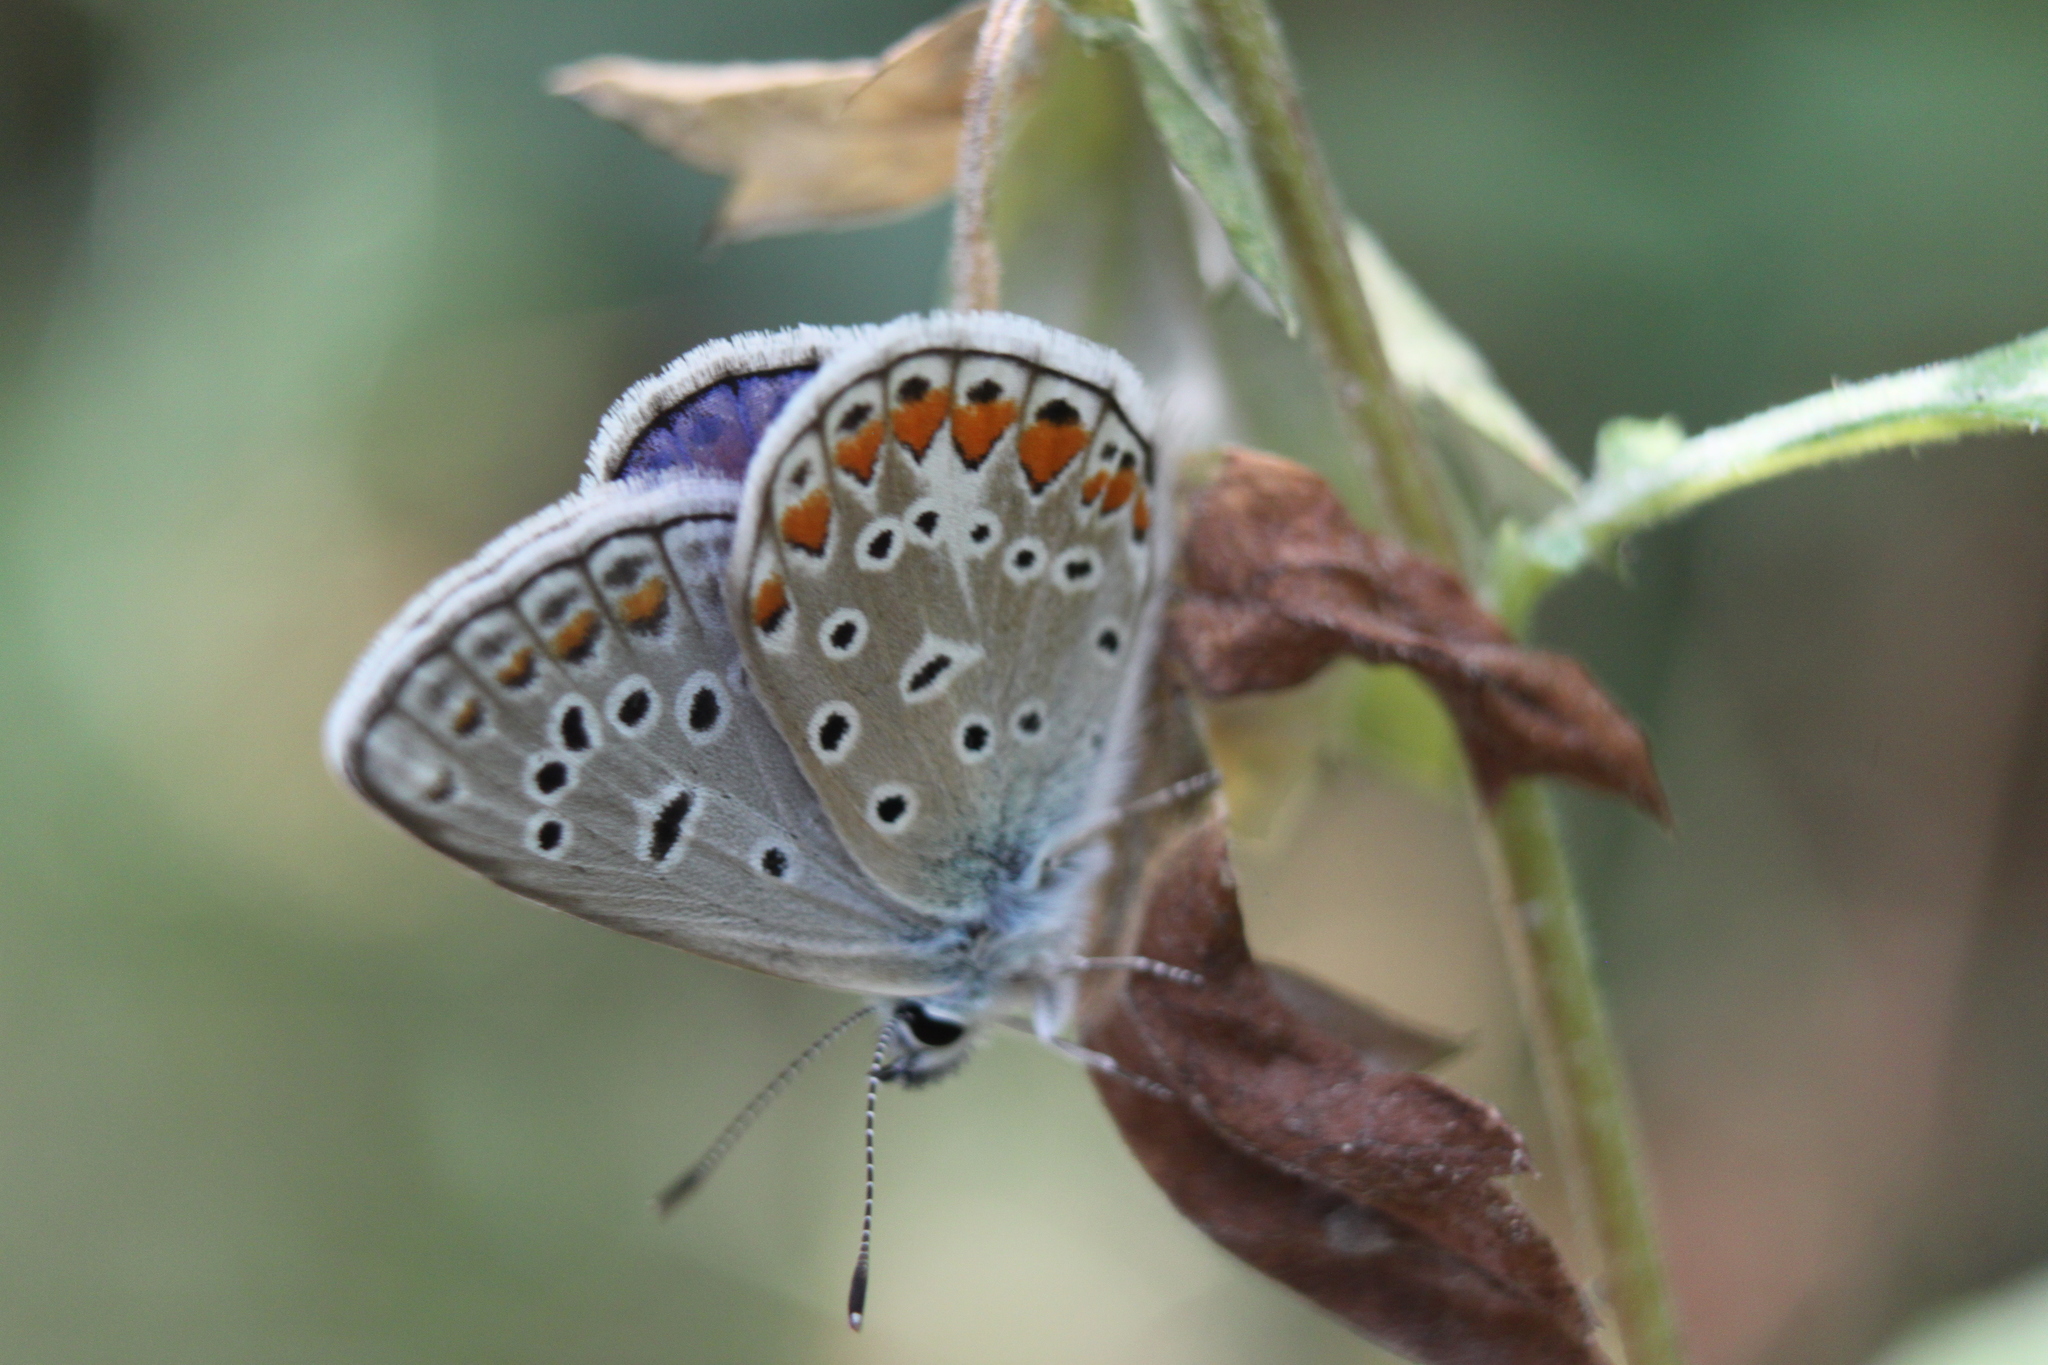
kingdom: Animalia
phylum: Arthropoda
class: Insecta
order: Lepidoptera
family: Lycaenidae
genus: Polyommatus
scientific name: Polyommatus icarus
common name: Common blue
